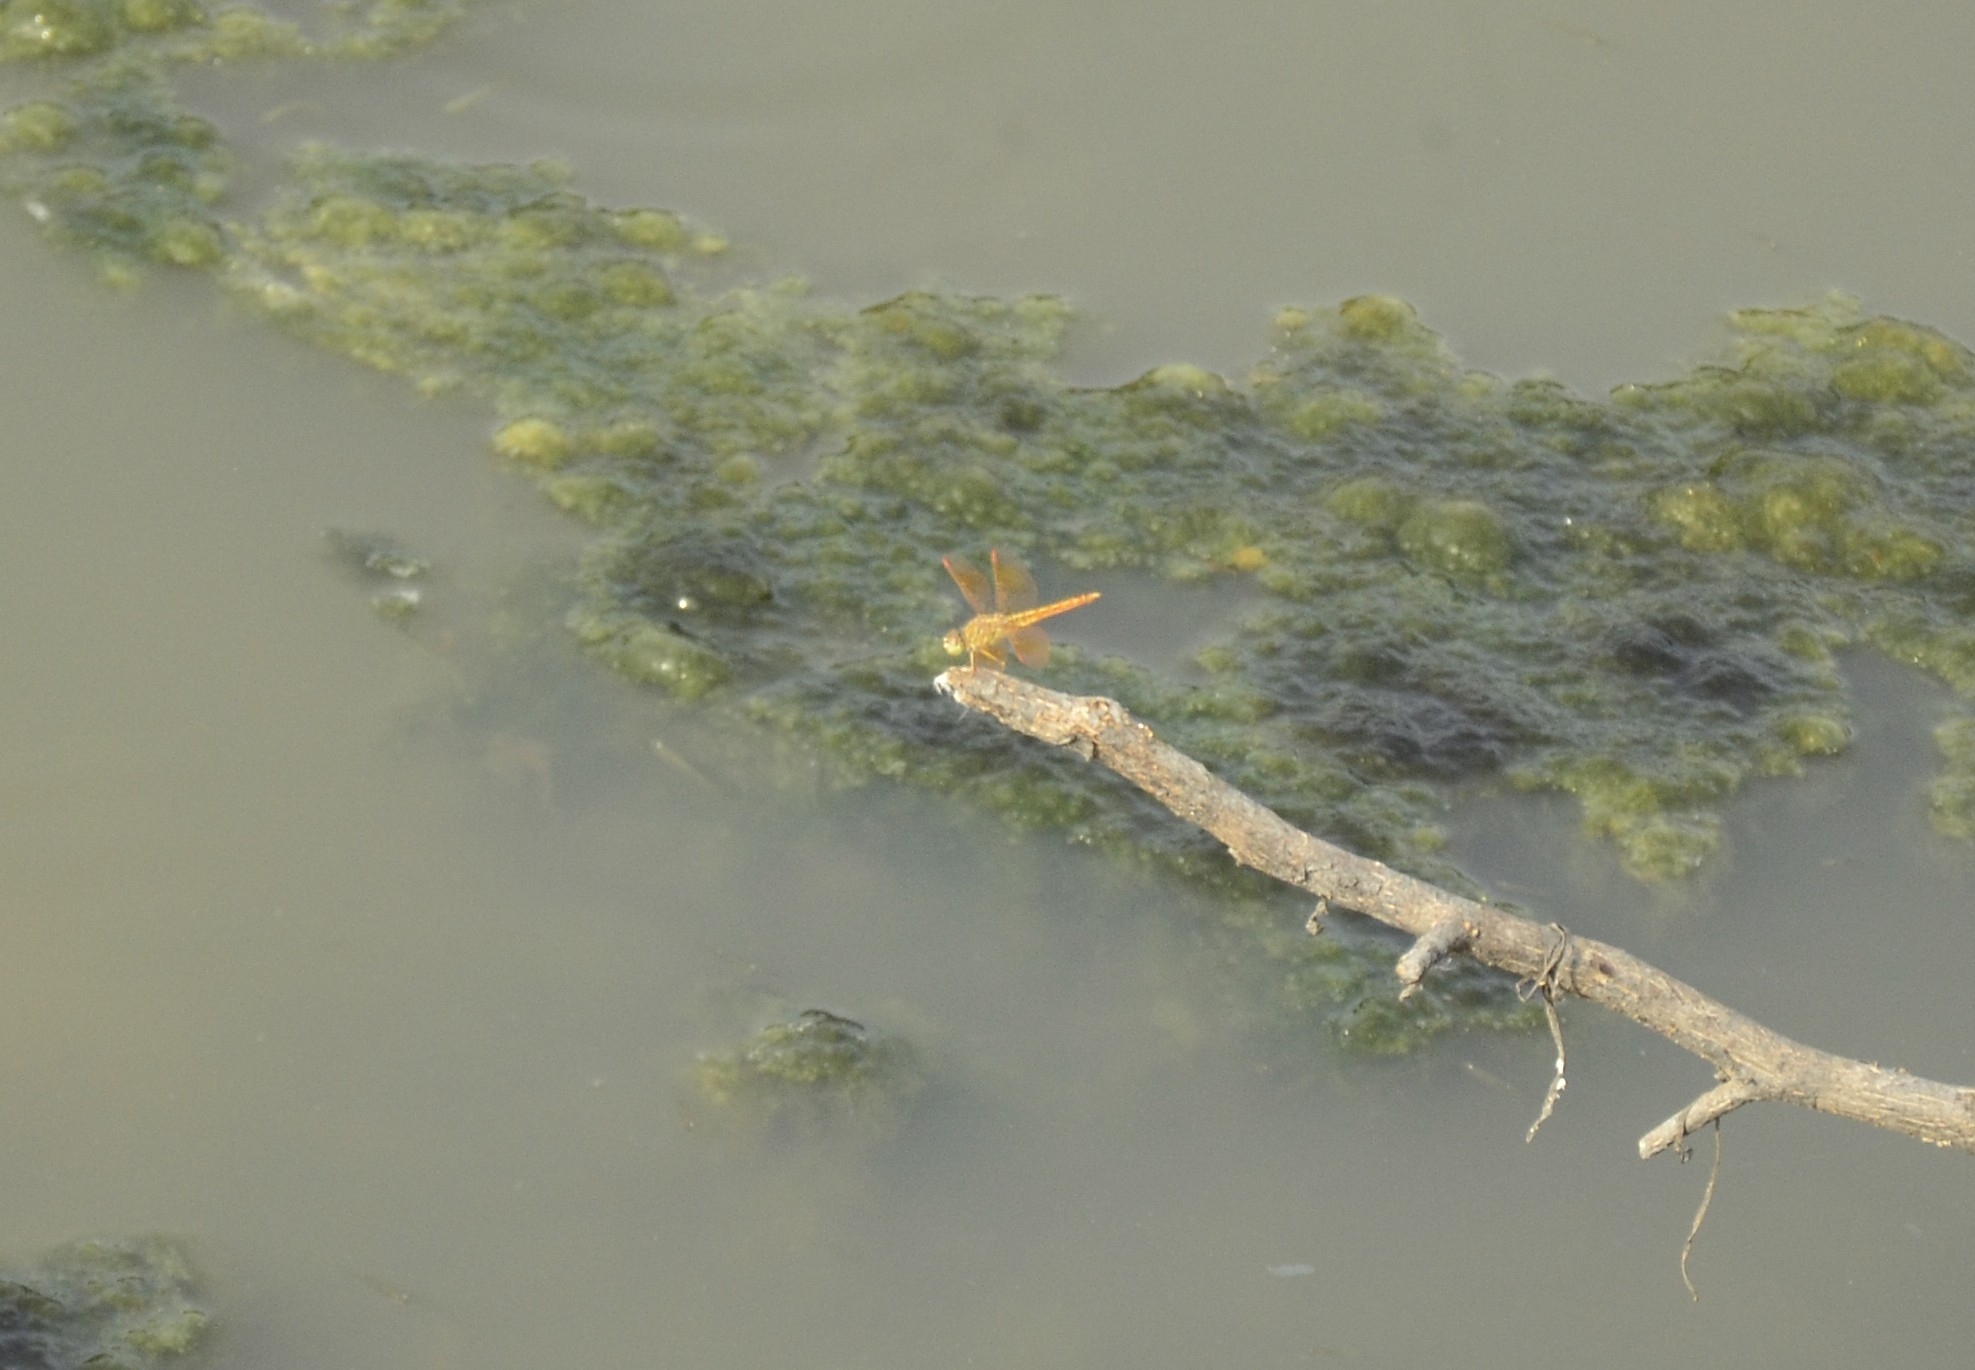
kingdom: Animalia
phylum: Arthropoda
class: Insecta
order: Odonata
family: Libellulidae
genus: Brachythemis
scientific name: Brachythemis contaminata
